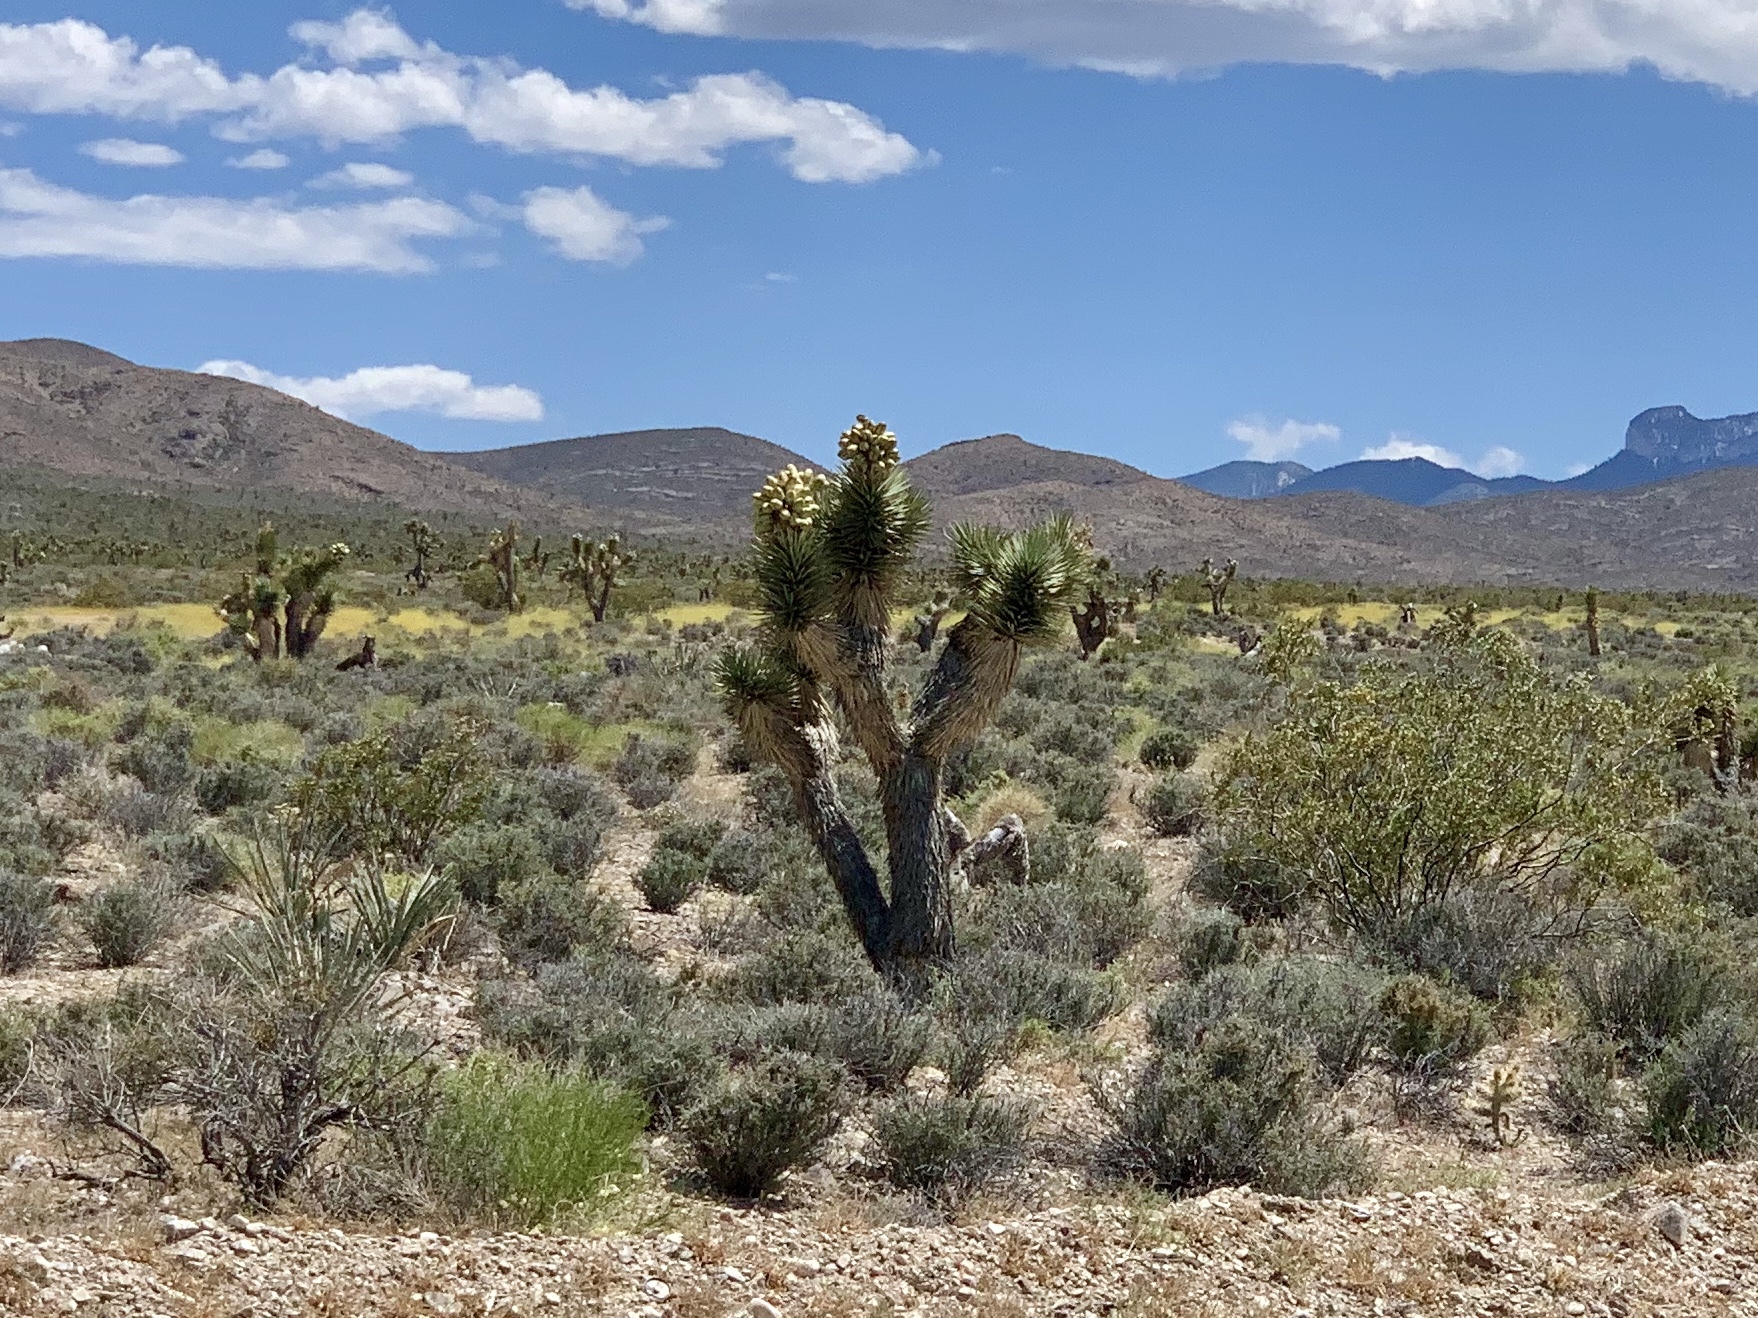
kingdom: Plantae
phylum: Tracheophyta
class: Liliopsida
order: Asparagales
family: Asparagaceae
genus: Yucca
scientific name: Yucca brevifolia
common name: Joshua tree
